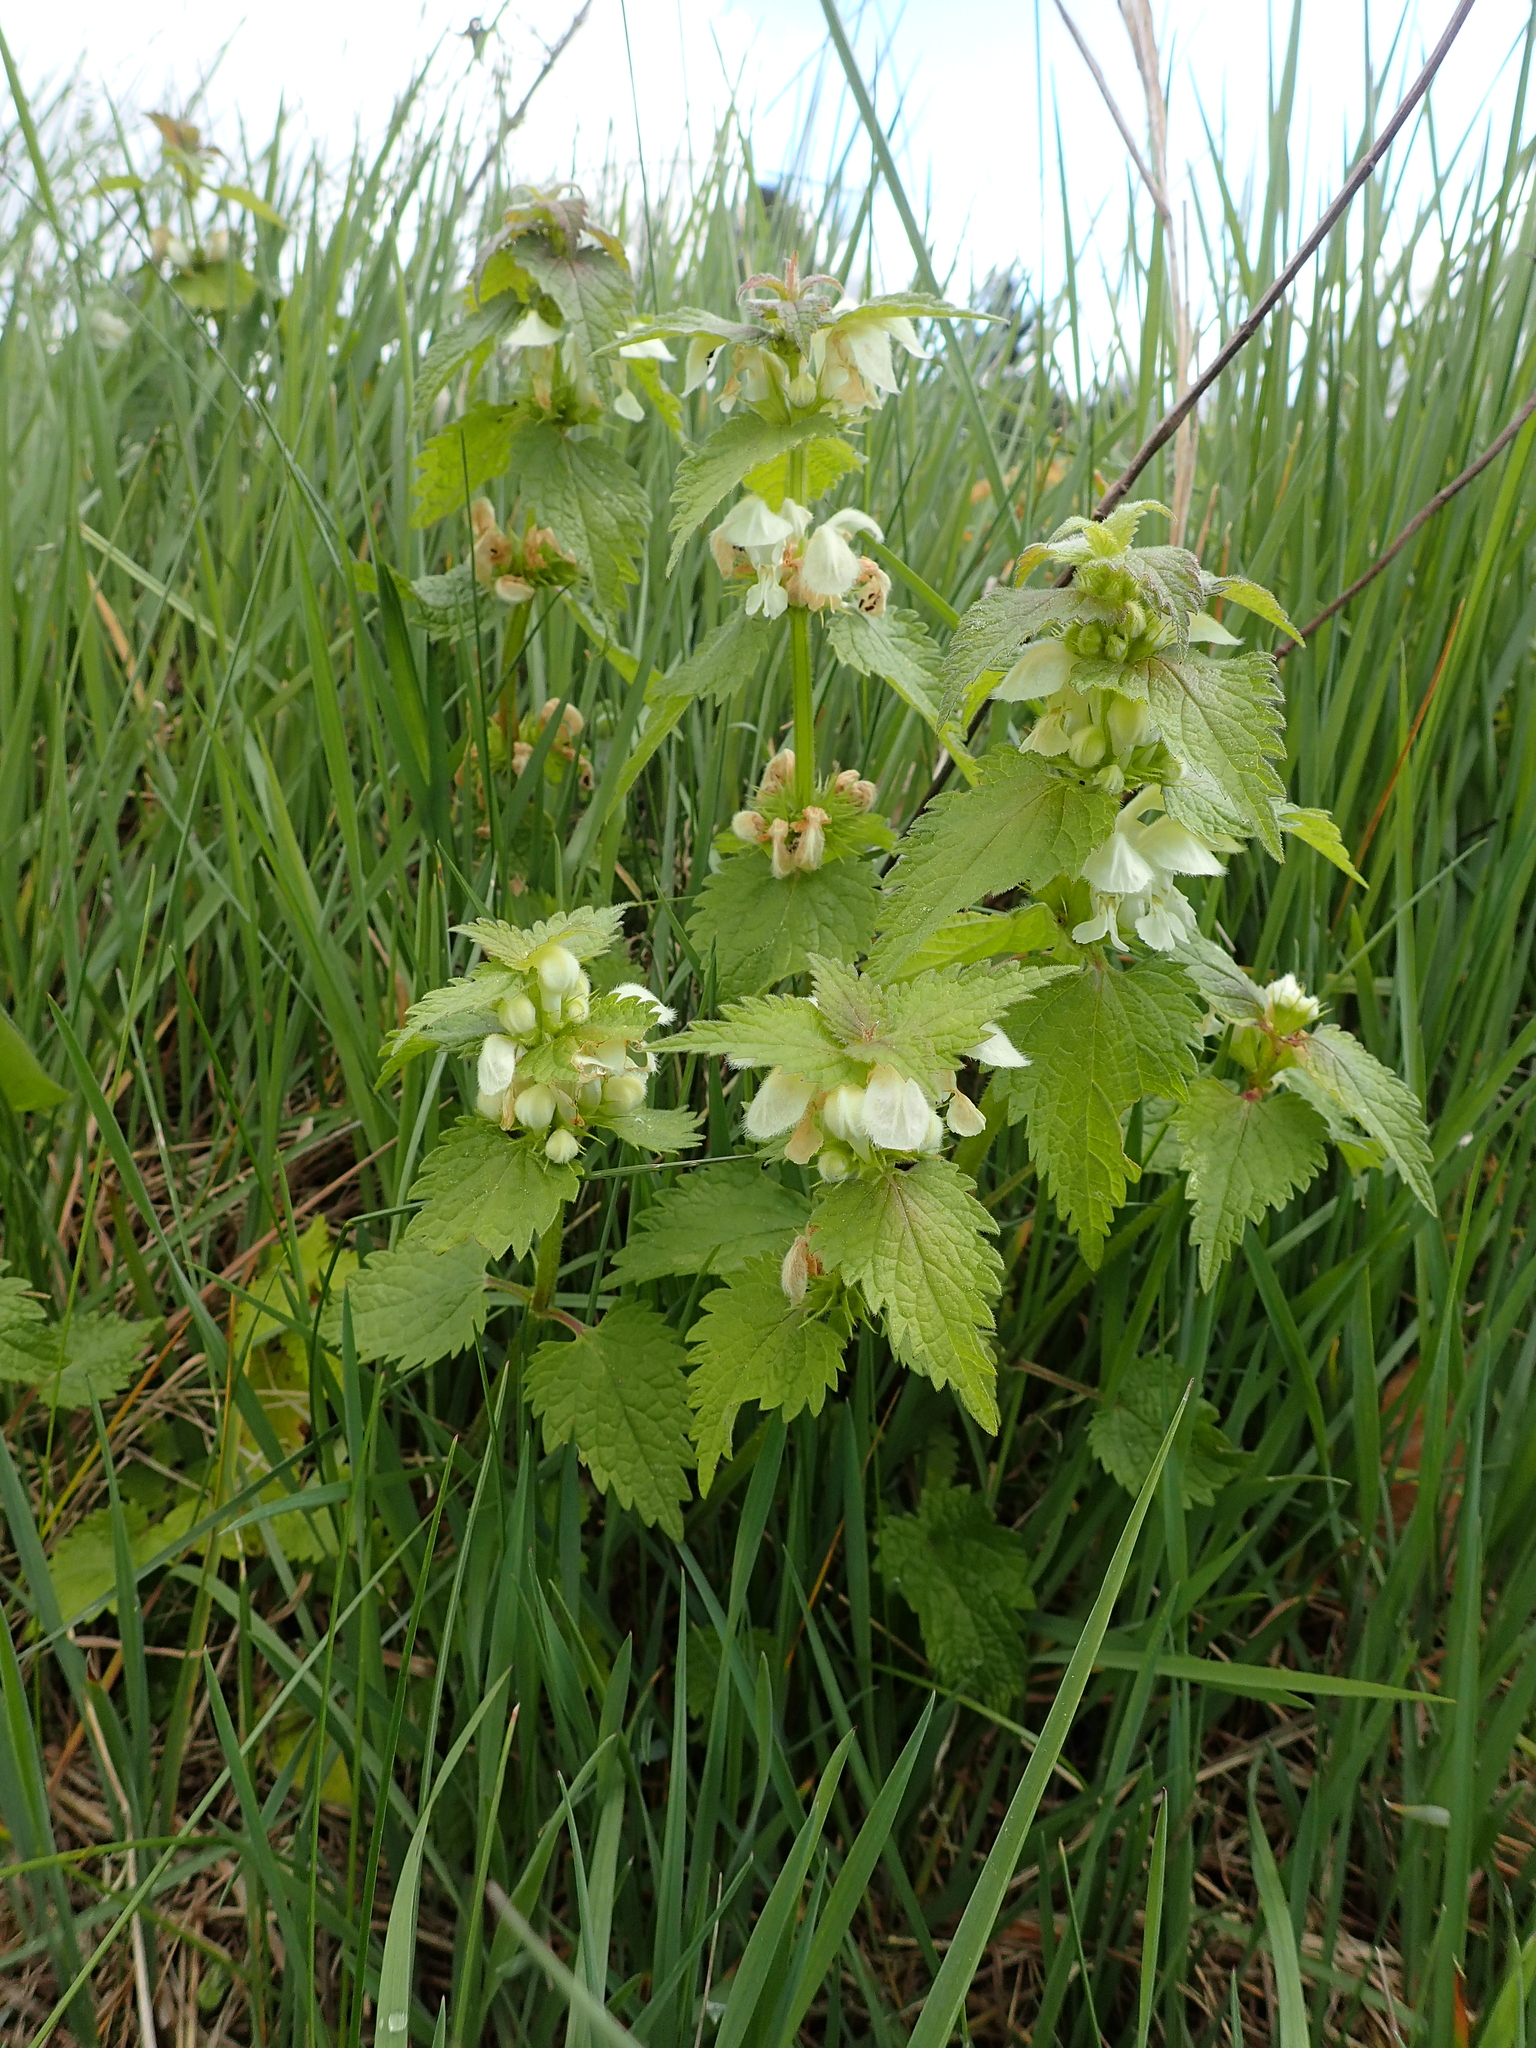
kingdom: Plantae
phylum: Tracheophyta
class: Magnoliopsida
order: Lamiales
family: Lamiaceae
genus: Lamium
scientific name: Lamium album
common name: White dead-nettle
